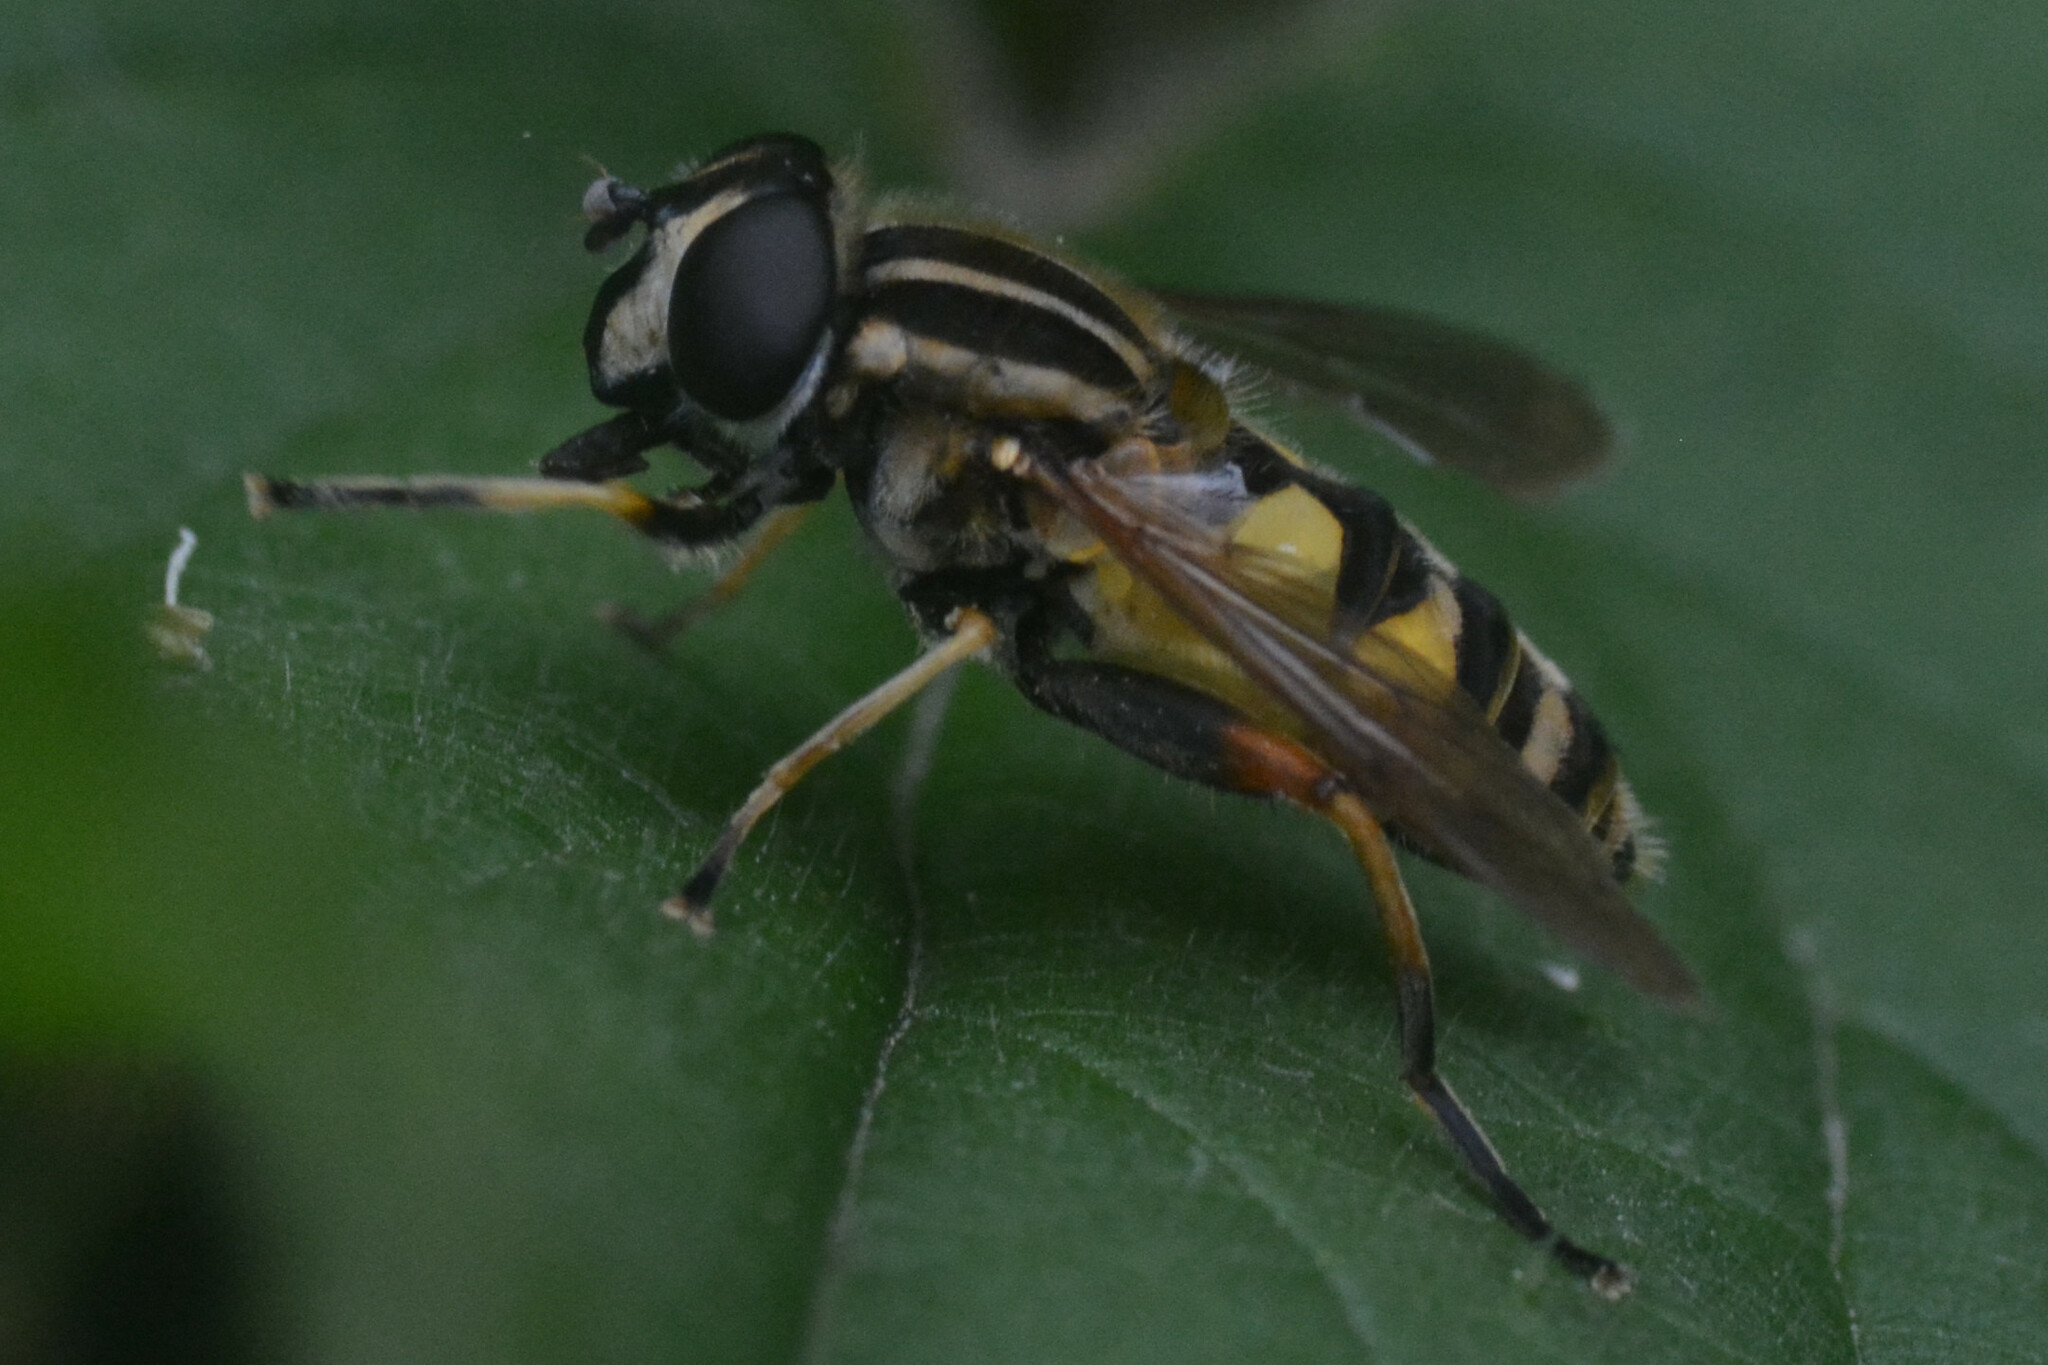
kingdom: Animalia
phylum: Arthropoda
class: Insecta
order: Diptera
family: Syrphidae
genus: Helophilus
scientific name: Helophilus pendulus
